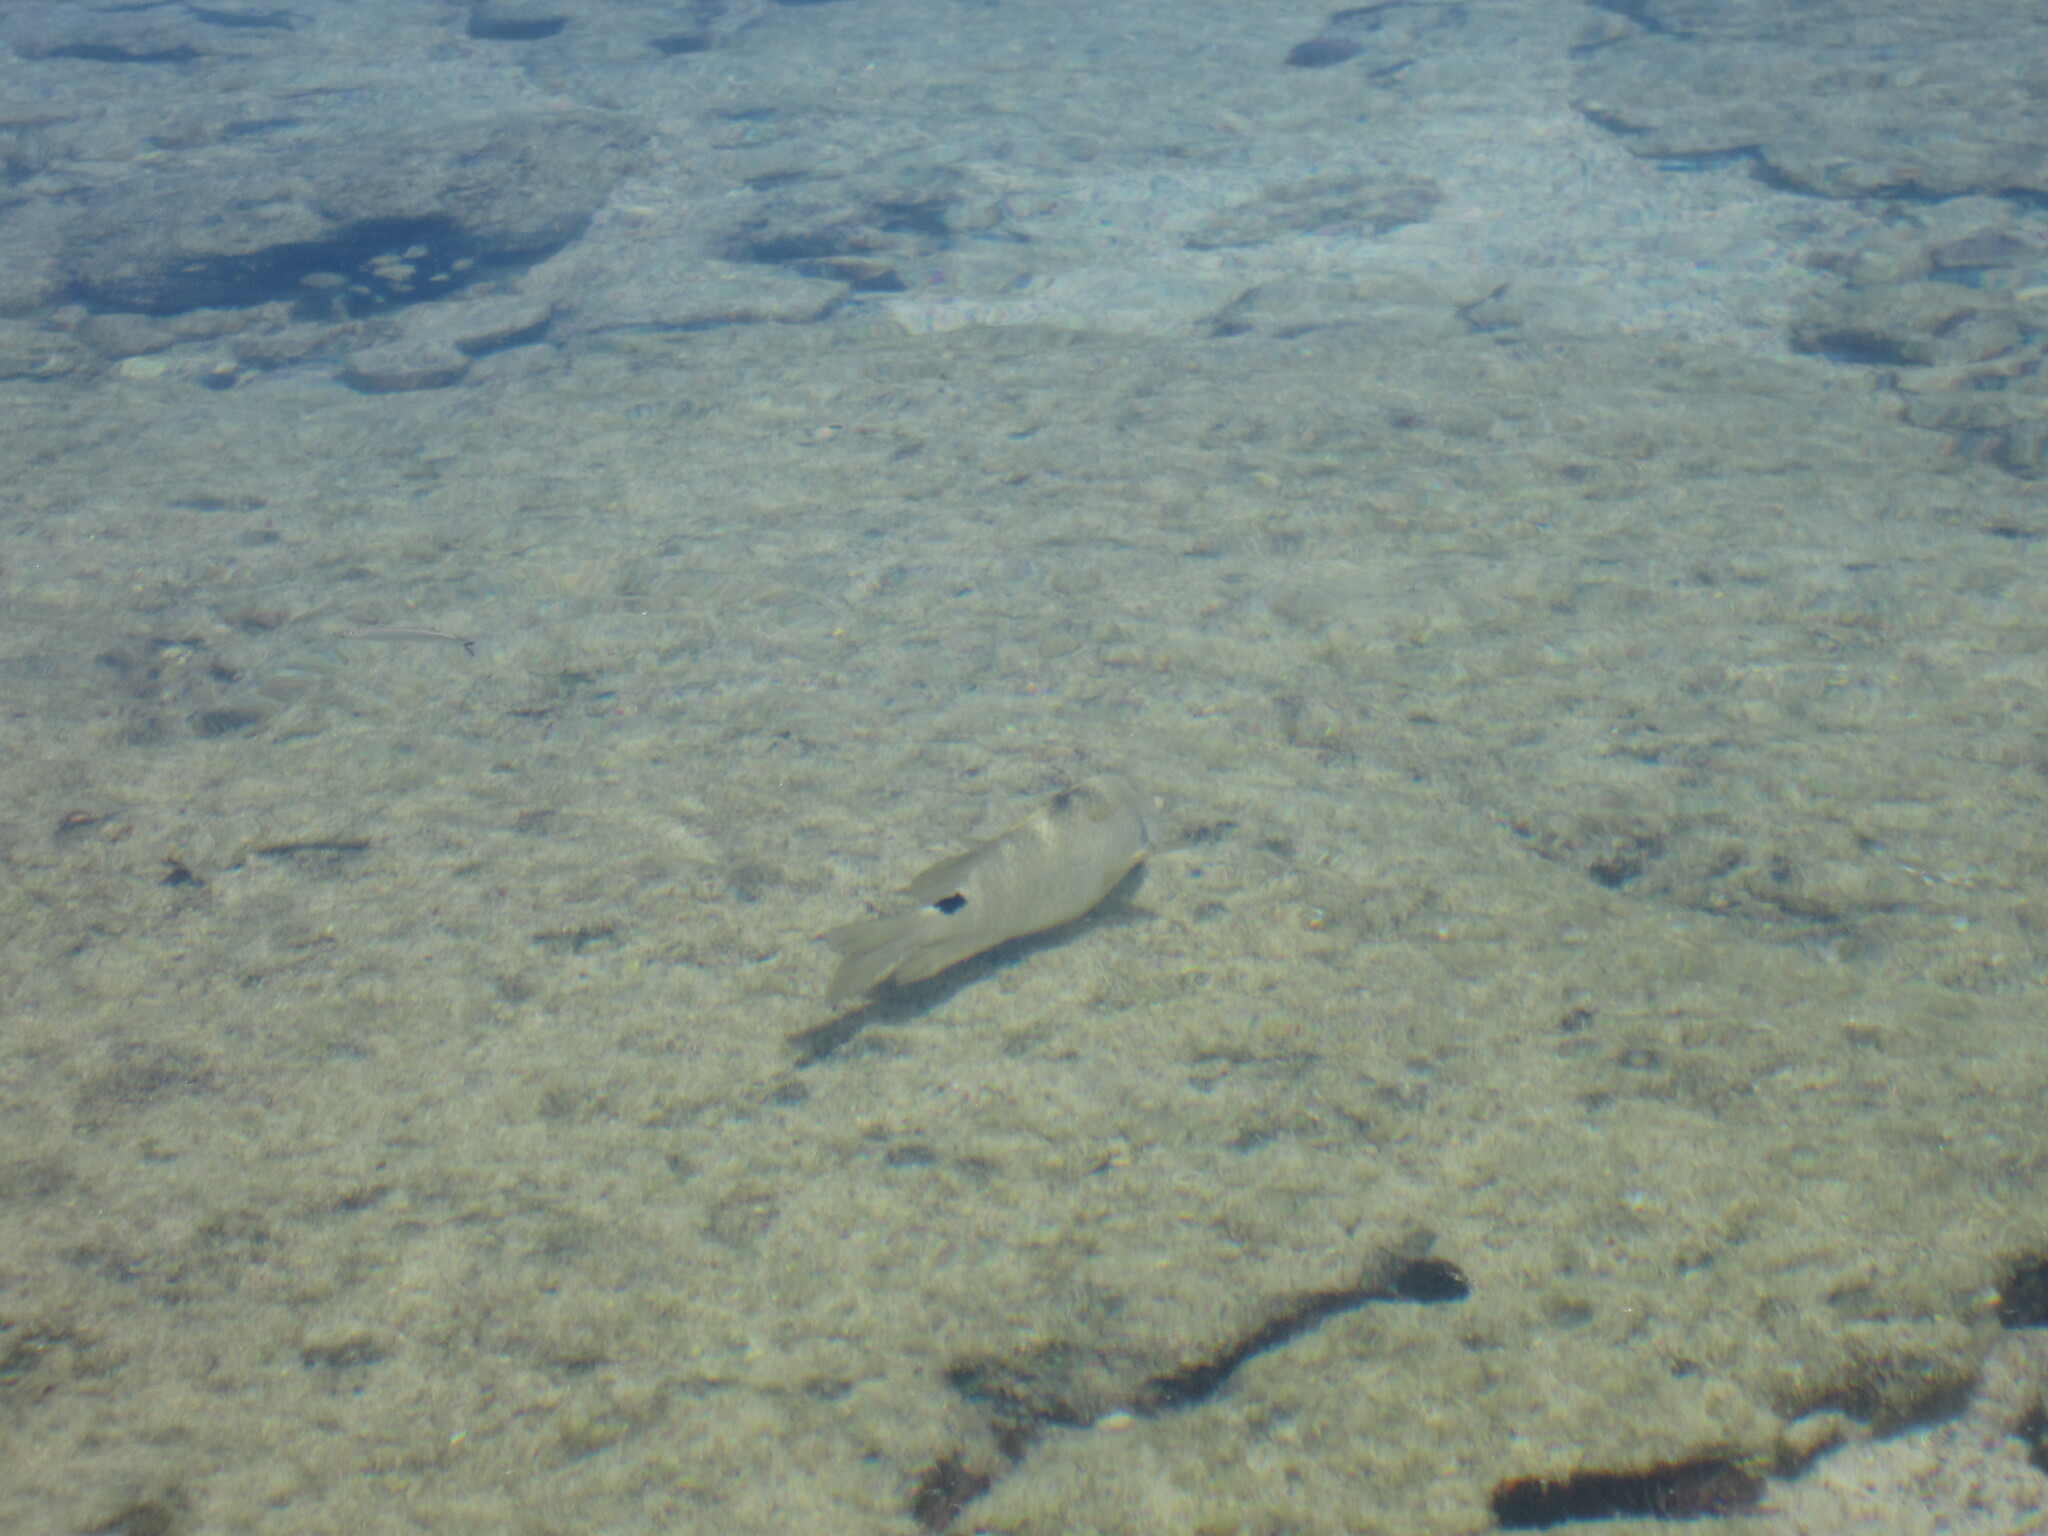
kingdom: Animalia
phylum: Chordata
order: Perciformes
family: Pomacentridae
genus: Abudefduf
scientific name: Abudefduf sordidus
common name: Blackspot sergeant
